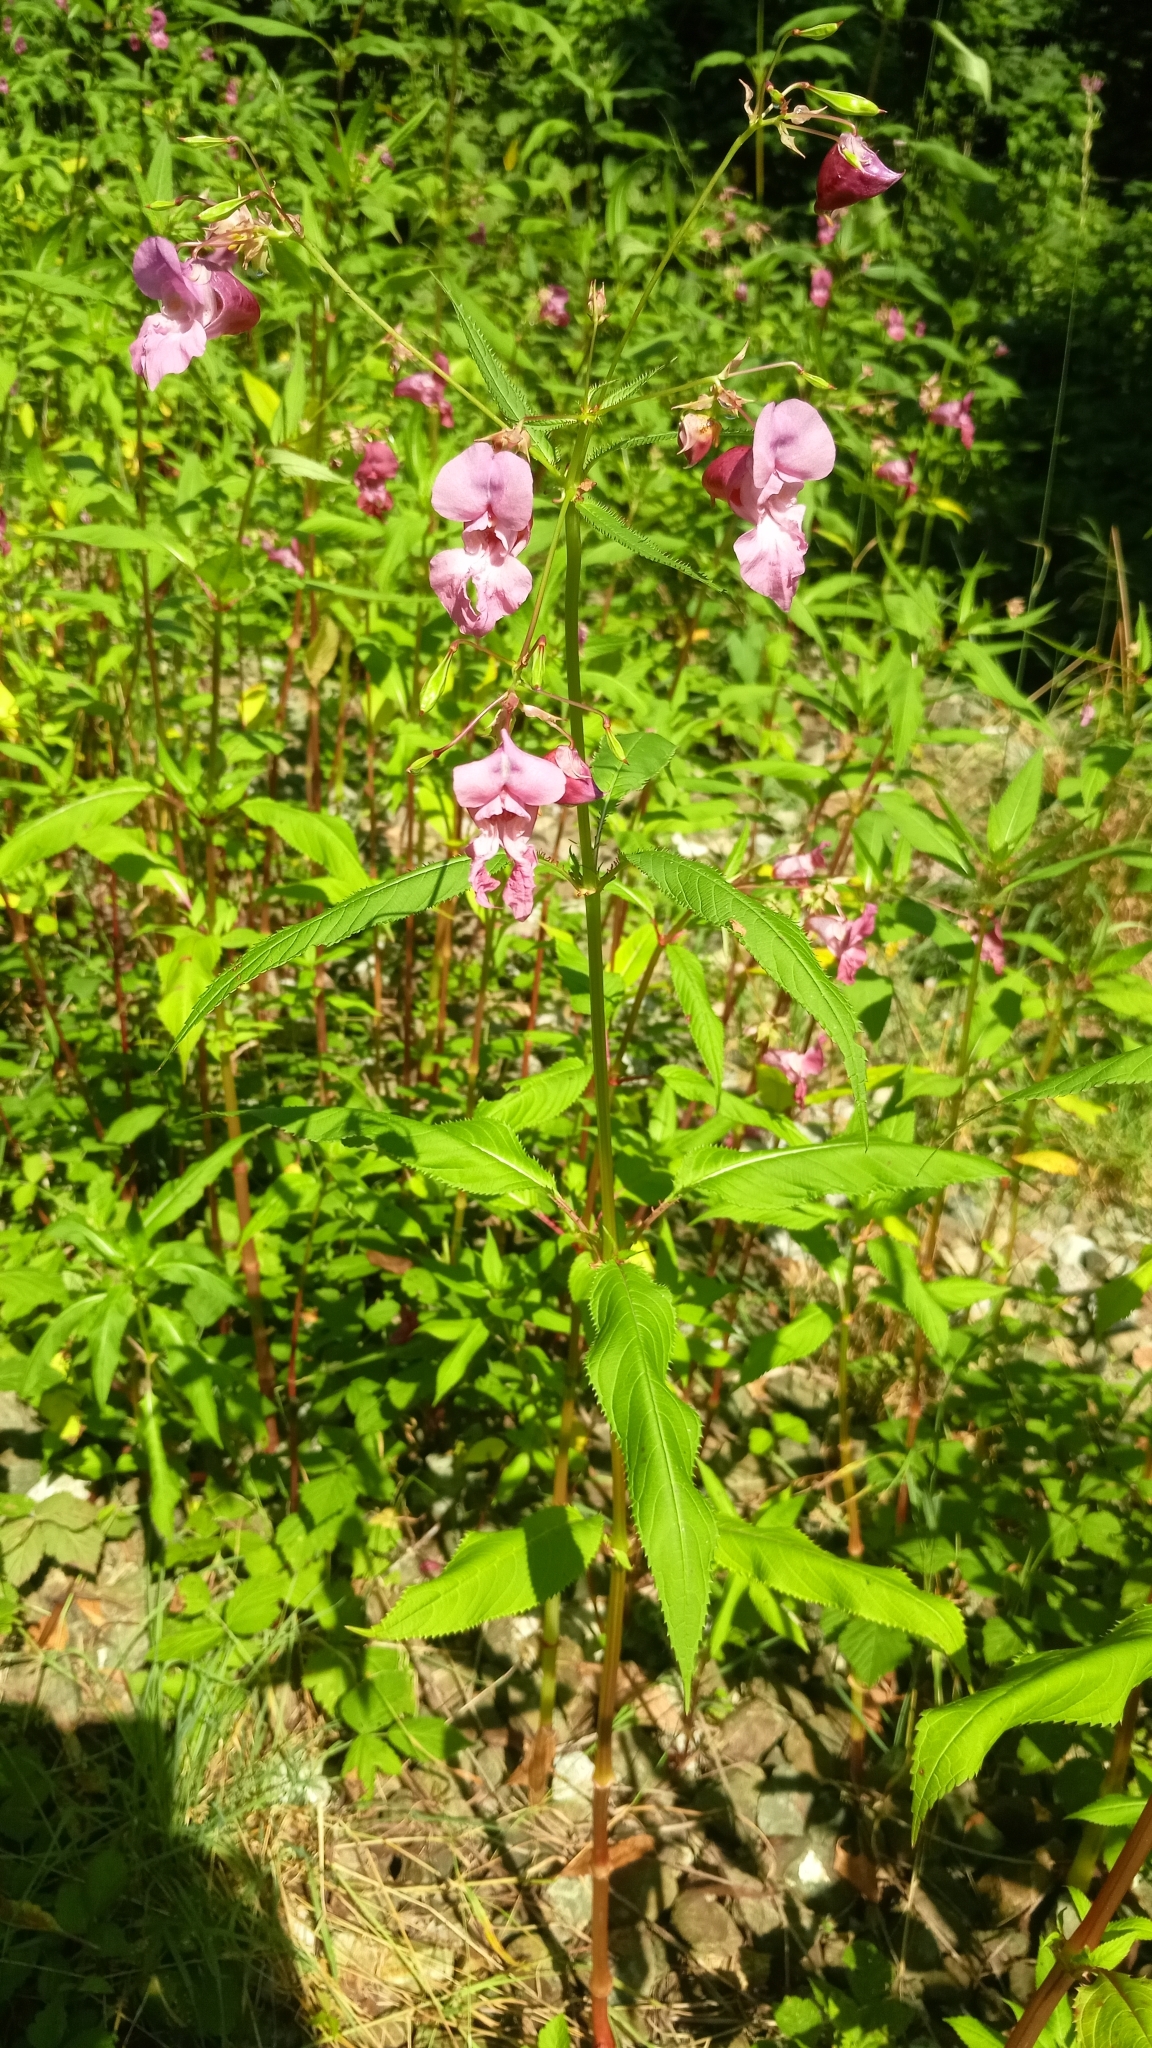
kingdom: Plantae
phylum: Tracheophyta
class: Magnoliopsida
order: Ericales
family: Balsaminaceae
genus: Impatiens
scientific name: Impatiens glandulifera
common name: Himalayan balsam
